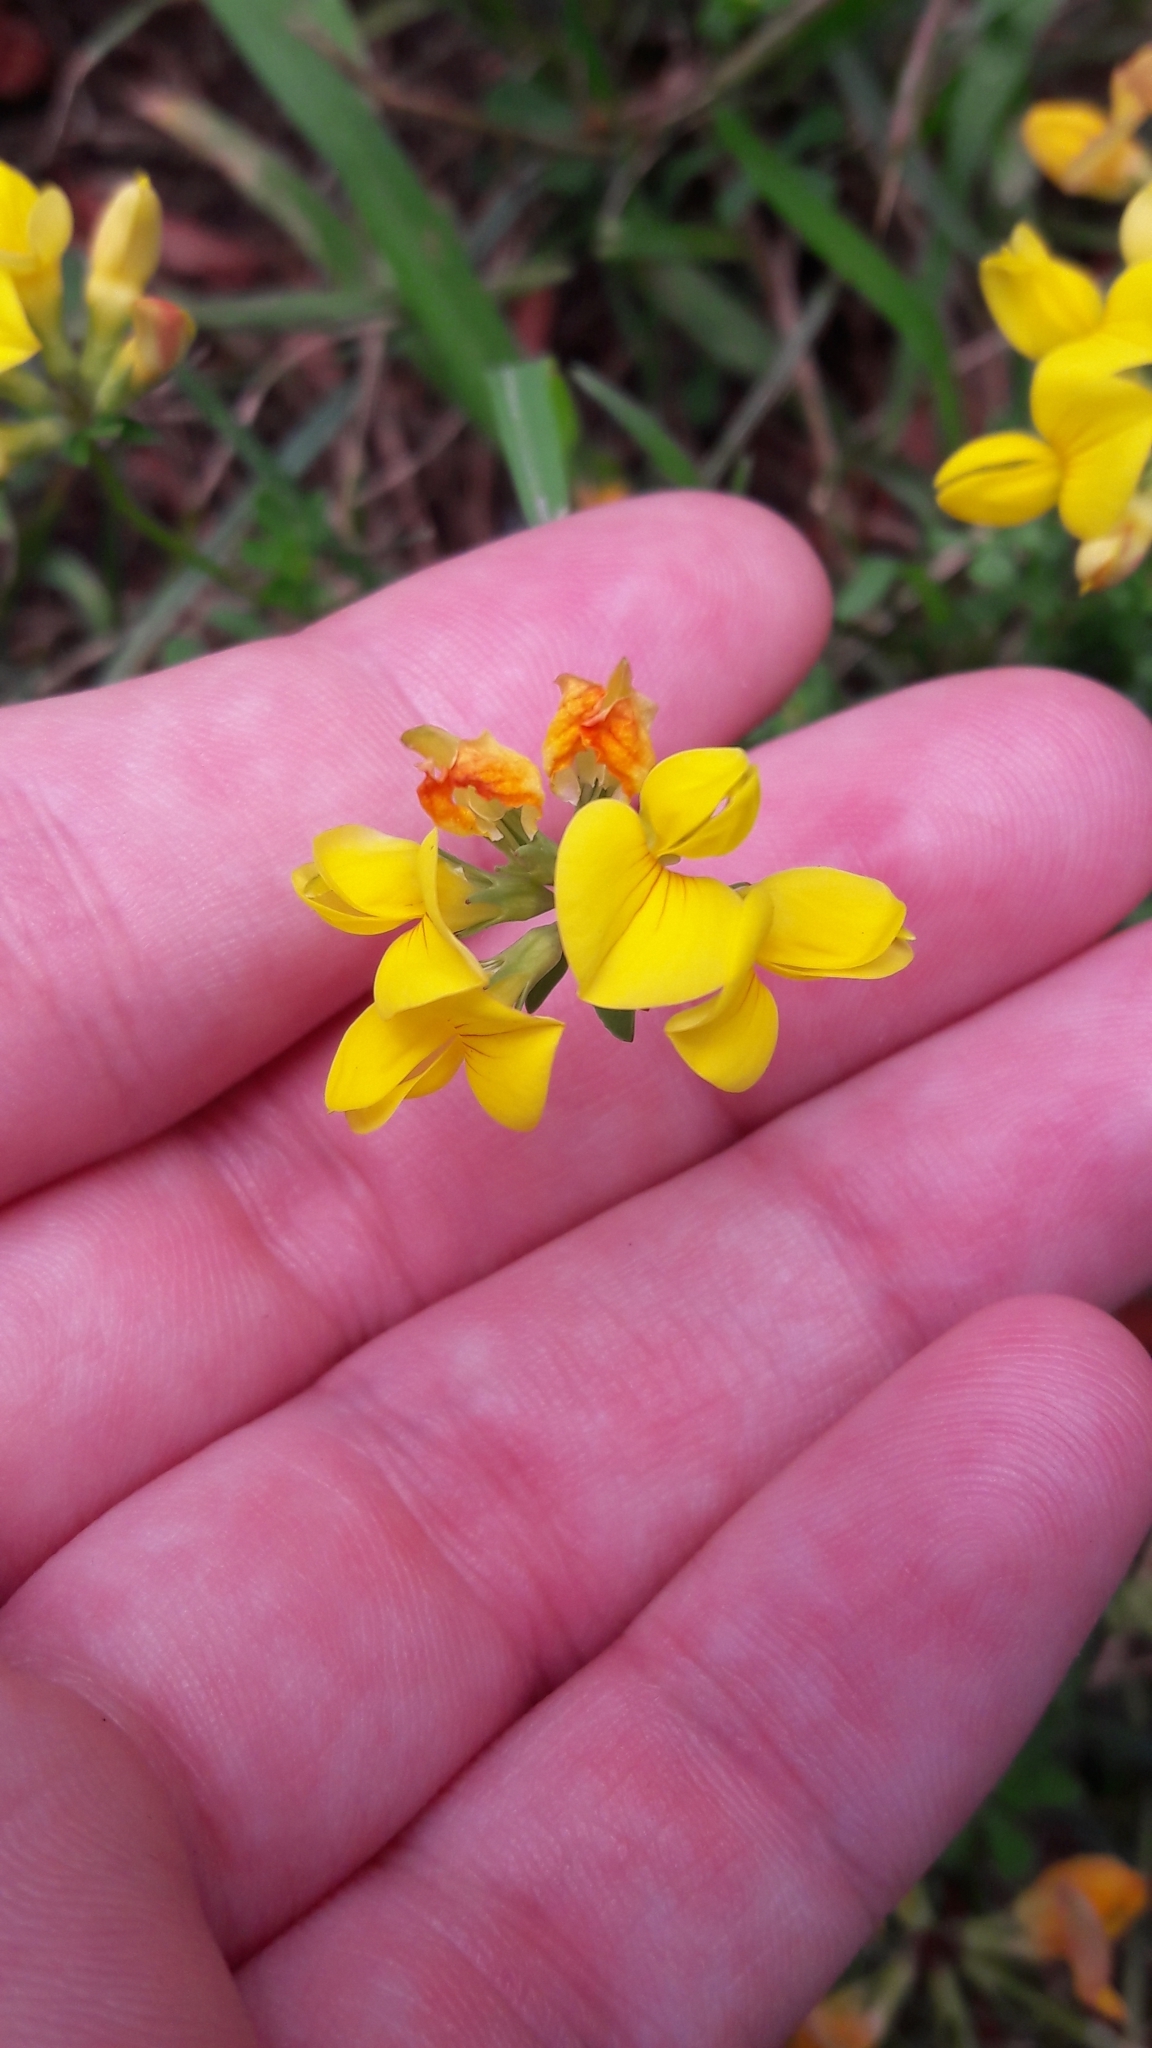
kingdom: Plantae
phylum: Tracheophyta
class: Magnoliopsida
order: Fabales
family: Fabaceae
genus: Lotus
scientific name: Lotus corniculatus
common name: Common bird's-foot-trefoil
